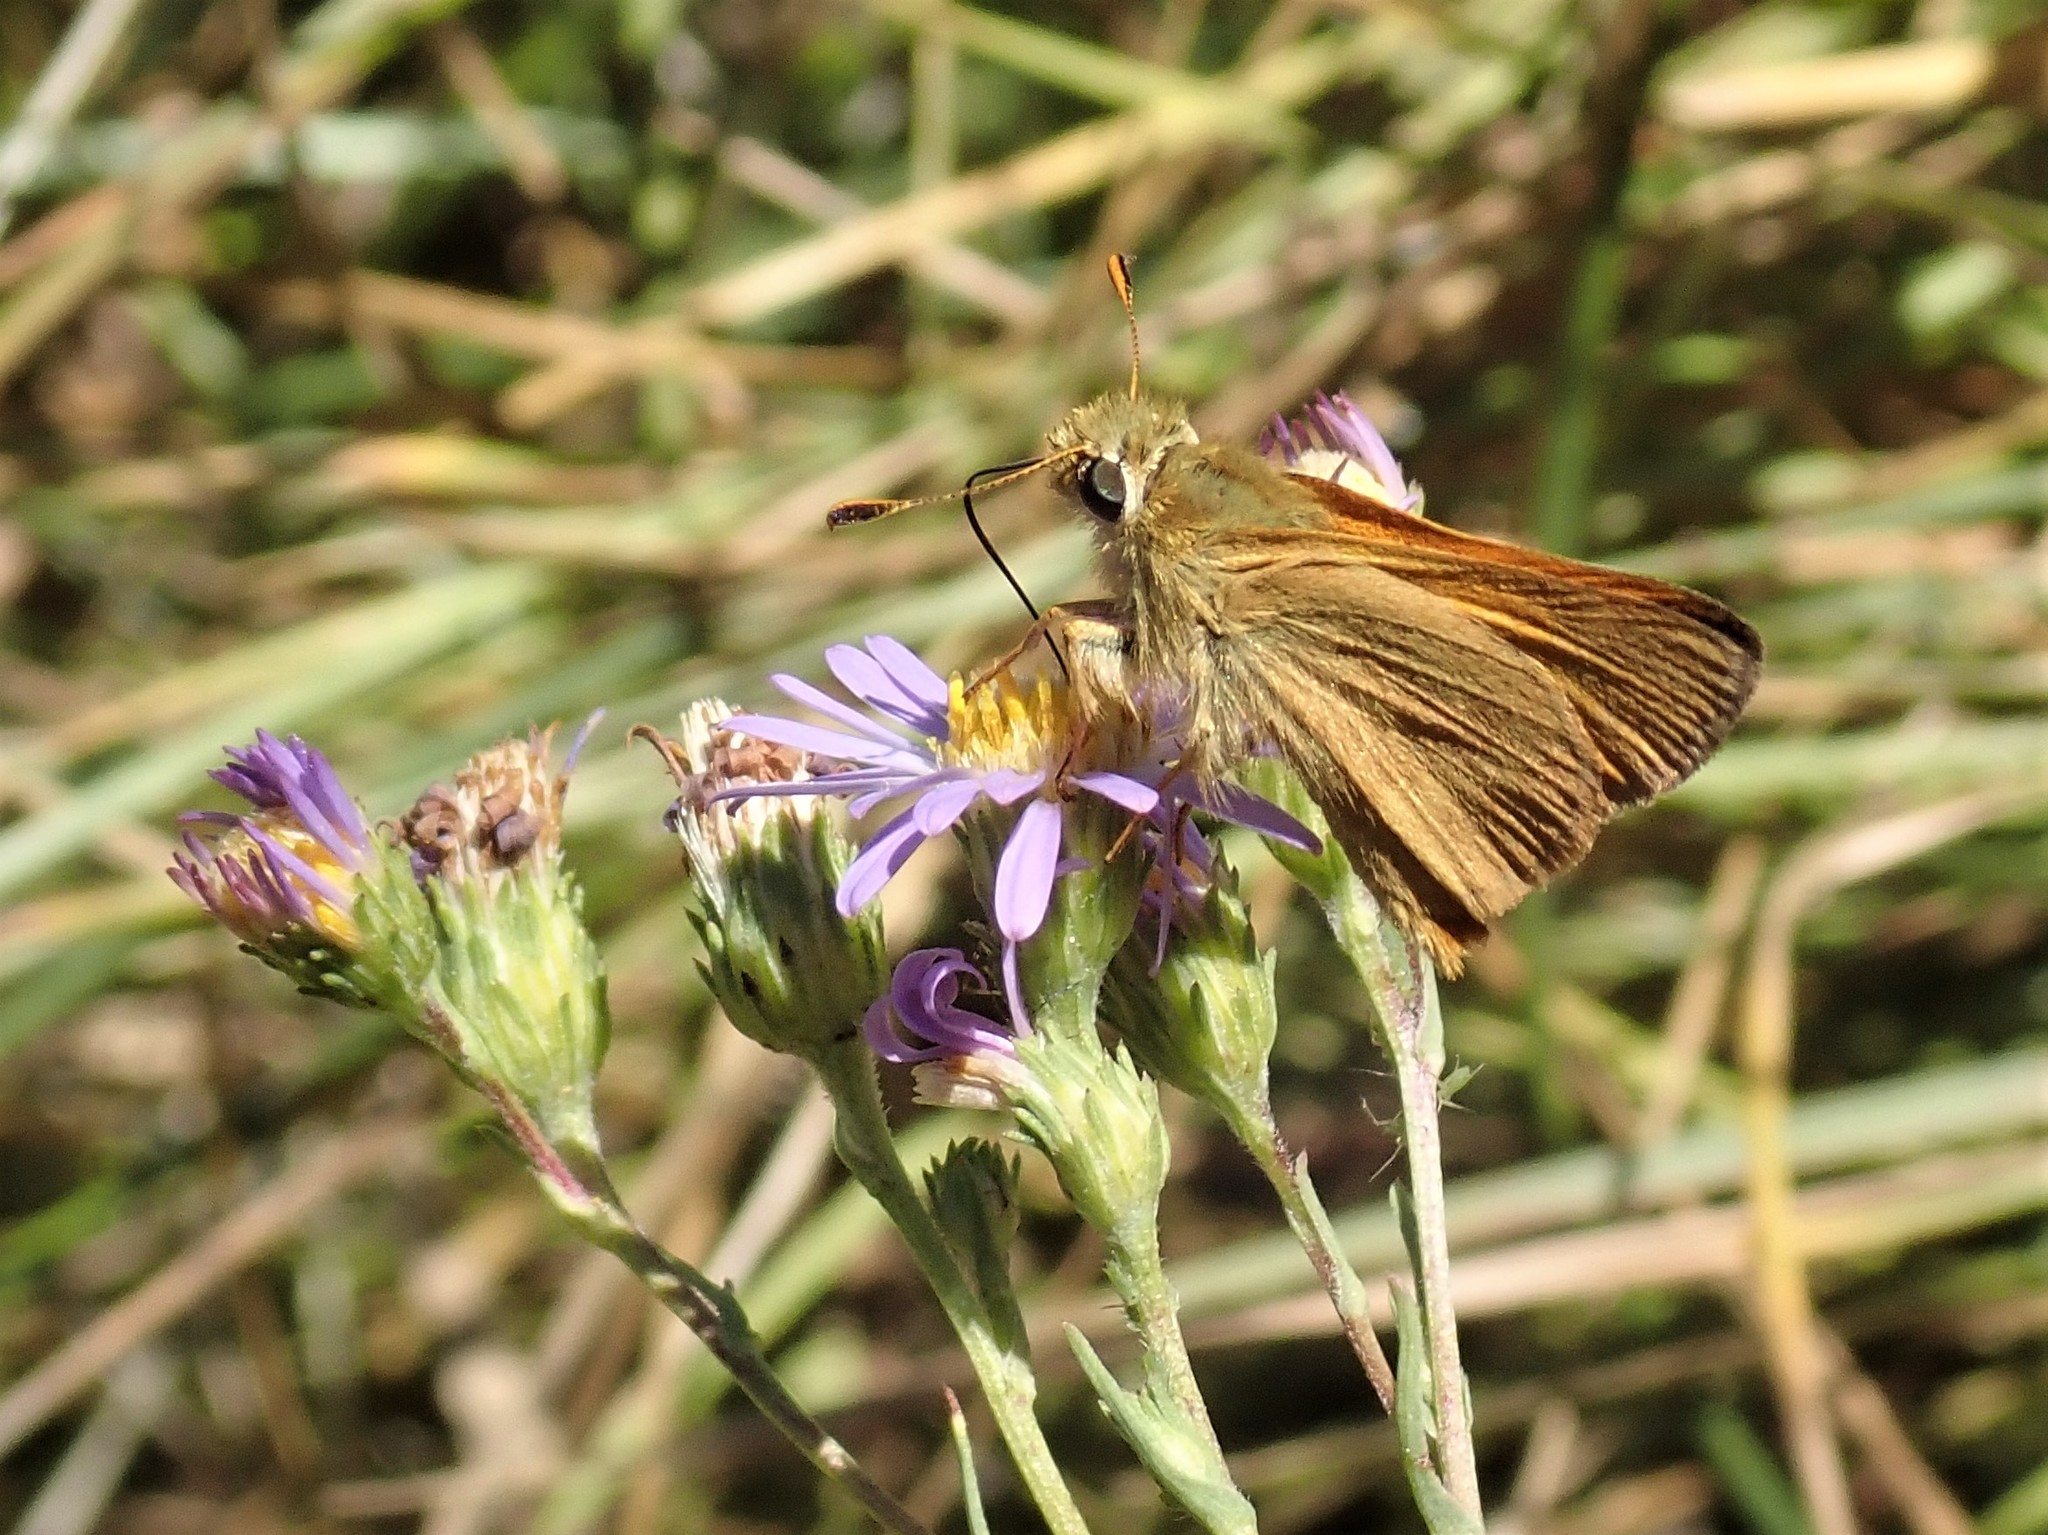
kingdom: Animalia
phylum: Arthropoda
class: Insecta
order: Lepidoptera
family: Hesperiidae
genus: Ochlodes
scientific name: Ochlodes sylvanoides
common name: Woodland skipper
